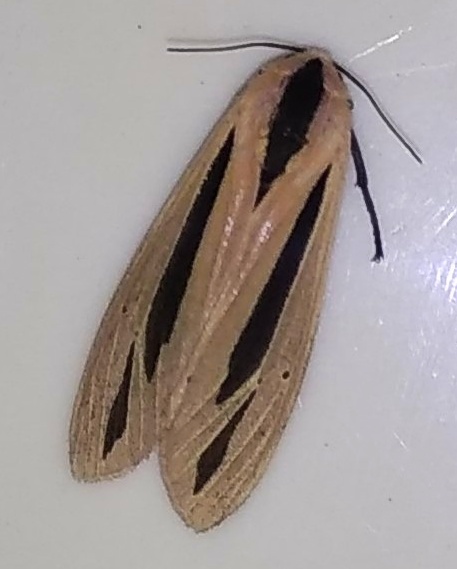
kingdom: Animalia
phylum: Arthropoda
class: Insecta
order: Lepidoptera
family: Erebidae
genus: Creatonotos
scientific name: Creatonotos gangis
